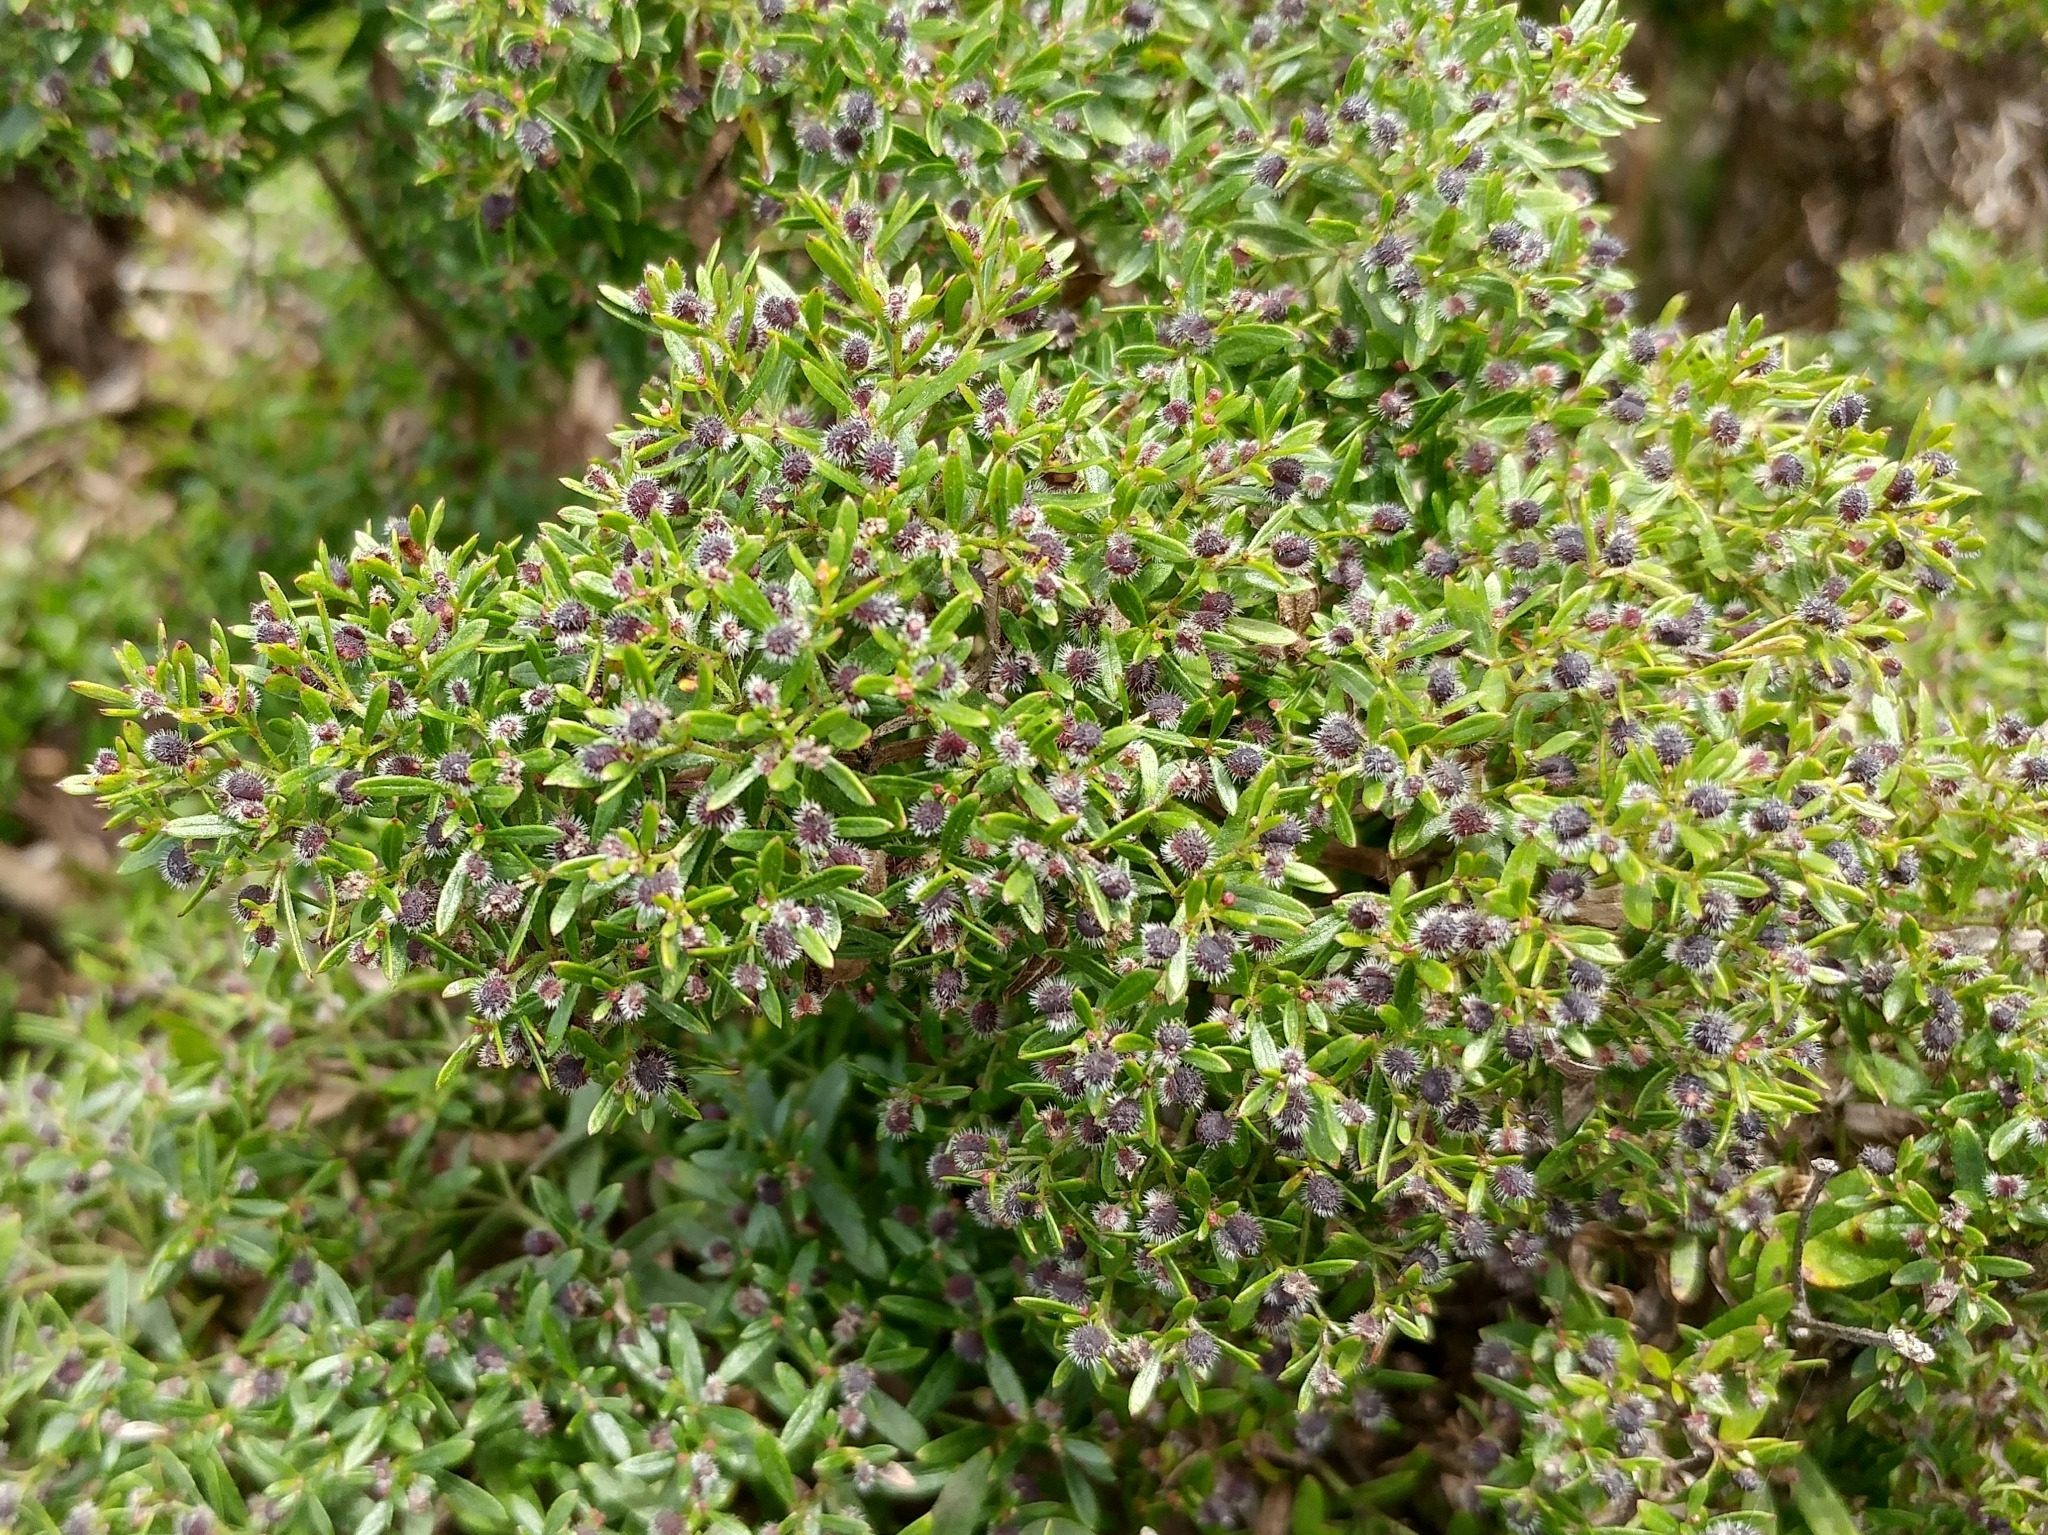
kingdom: Plantae
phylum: Tracheophyta
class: Magnoliopsida
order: Gentianales
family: Rubiaceae
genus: Galium
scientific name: Galium catalinense
